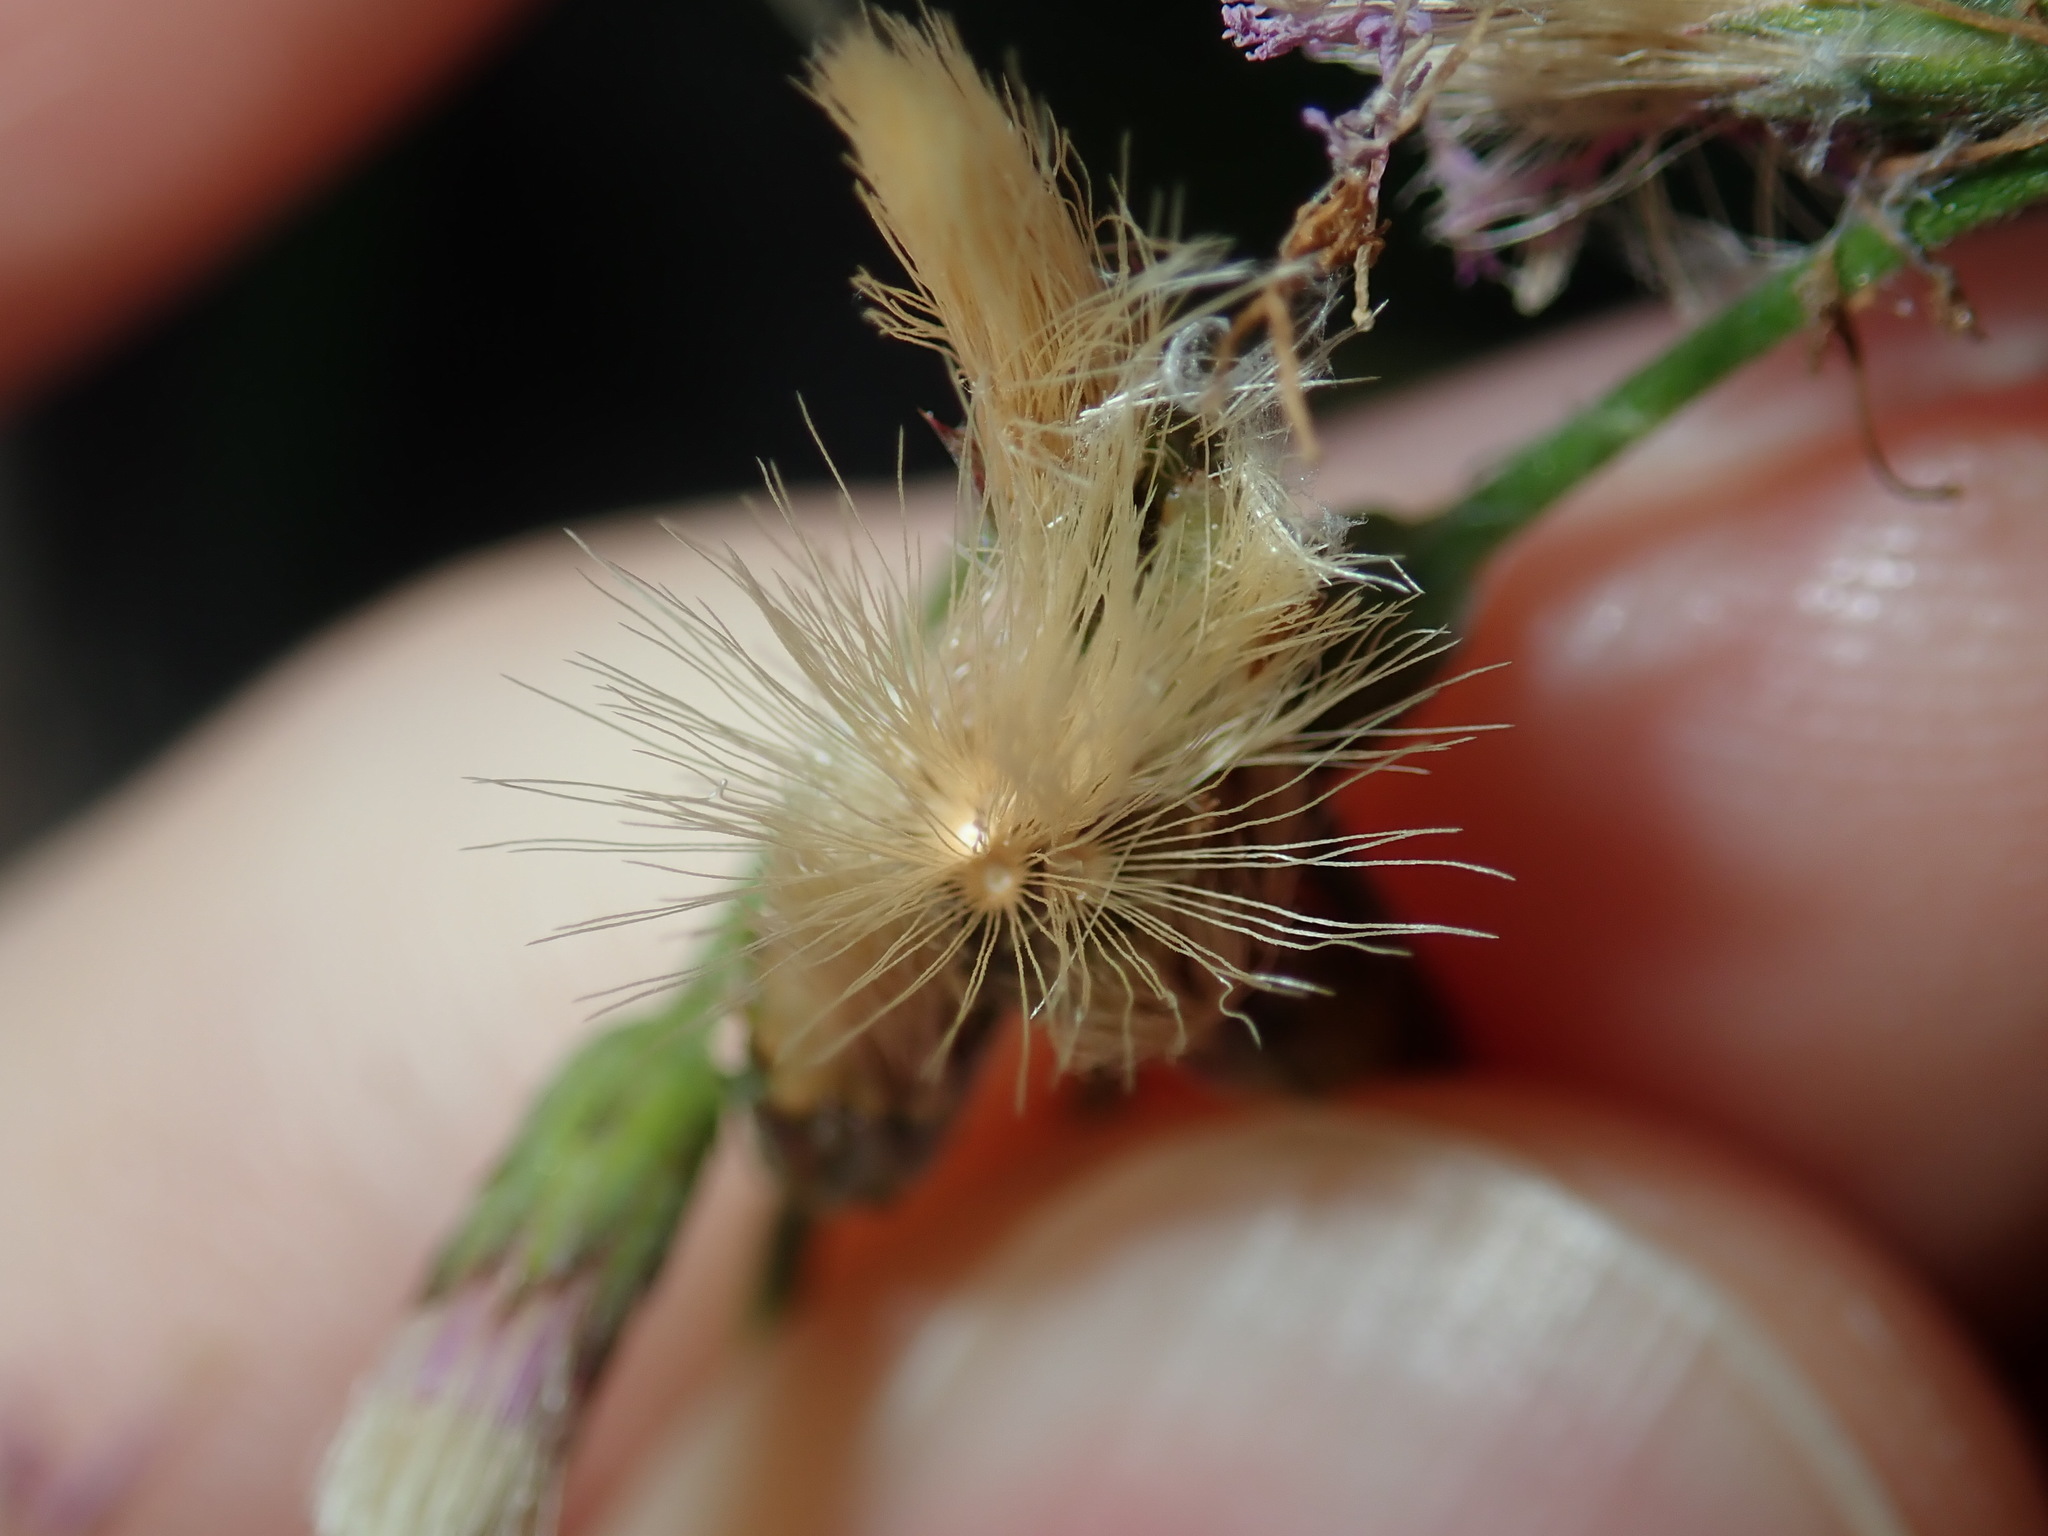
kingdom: Plantae
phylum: Tracheophyta
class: Magnoliopsida
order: Asterales
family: Asteraceae
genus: Cyanthillium
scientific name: Cyanthillium cinereum
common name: Little ironweed
